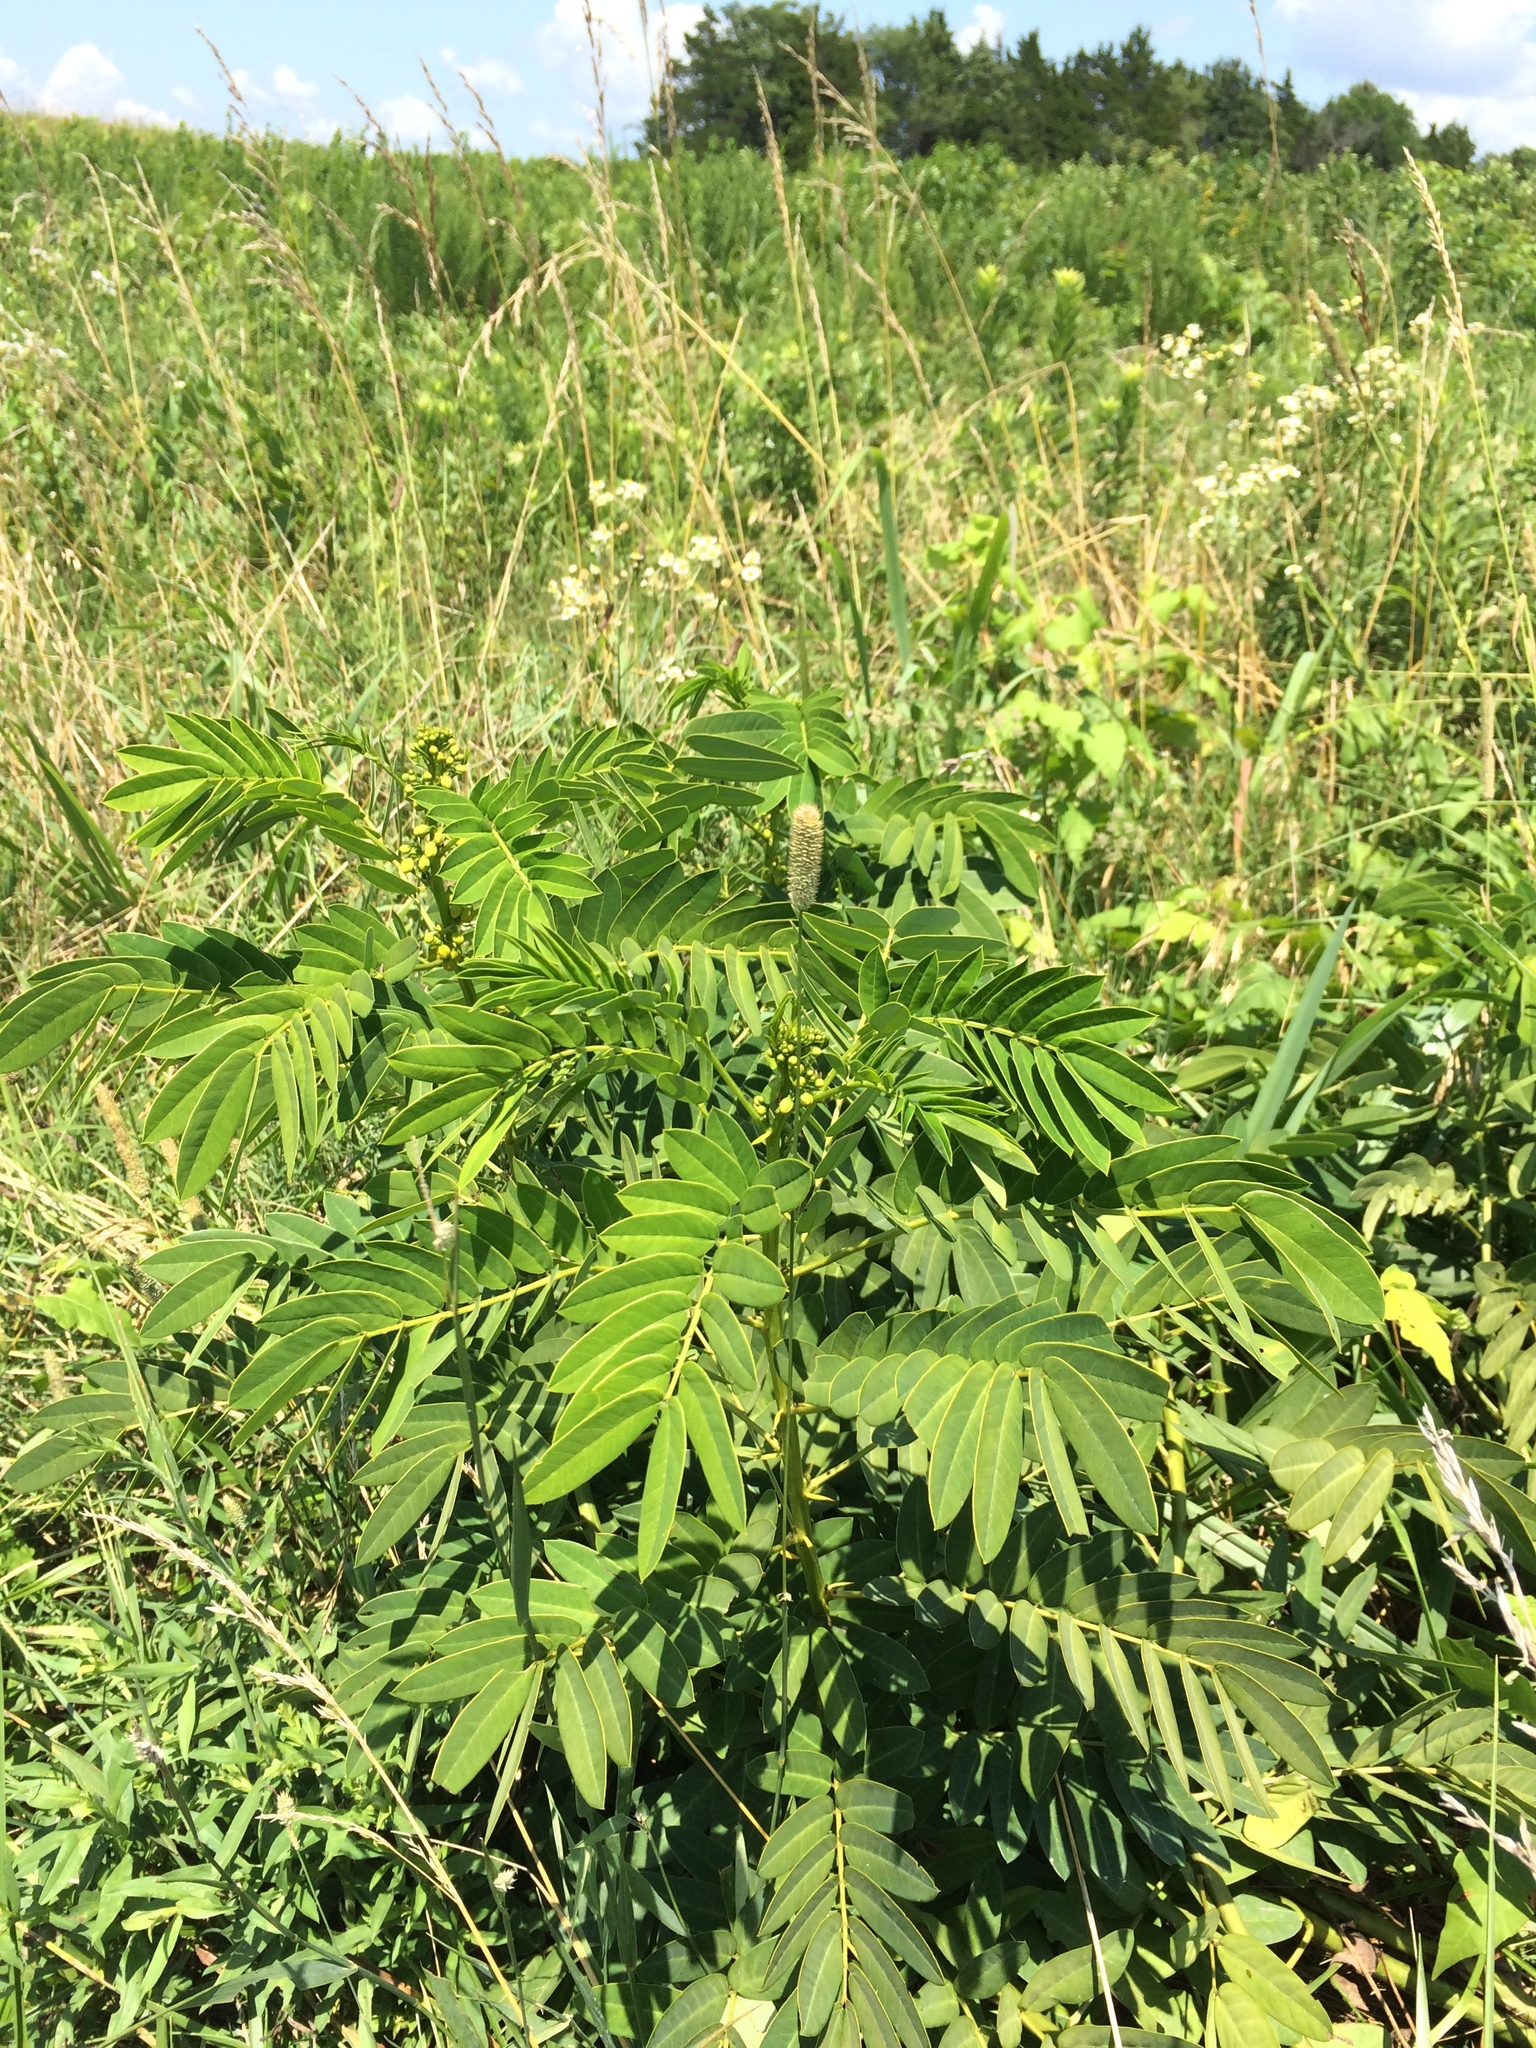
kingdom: Plantae
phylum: Tracheophyta
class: Magnoliopsida
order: Fabales
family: Fabaceae
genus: Senna
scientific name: Senna marilandica
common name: American senna
